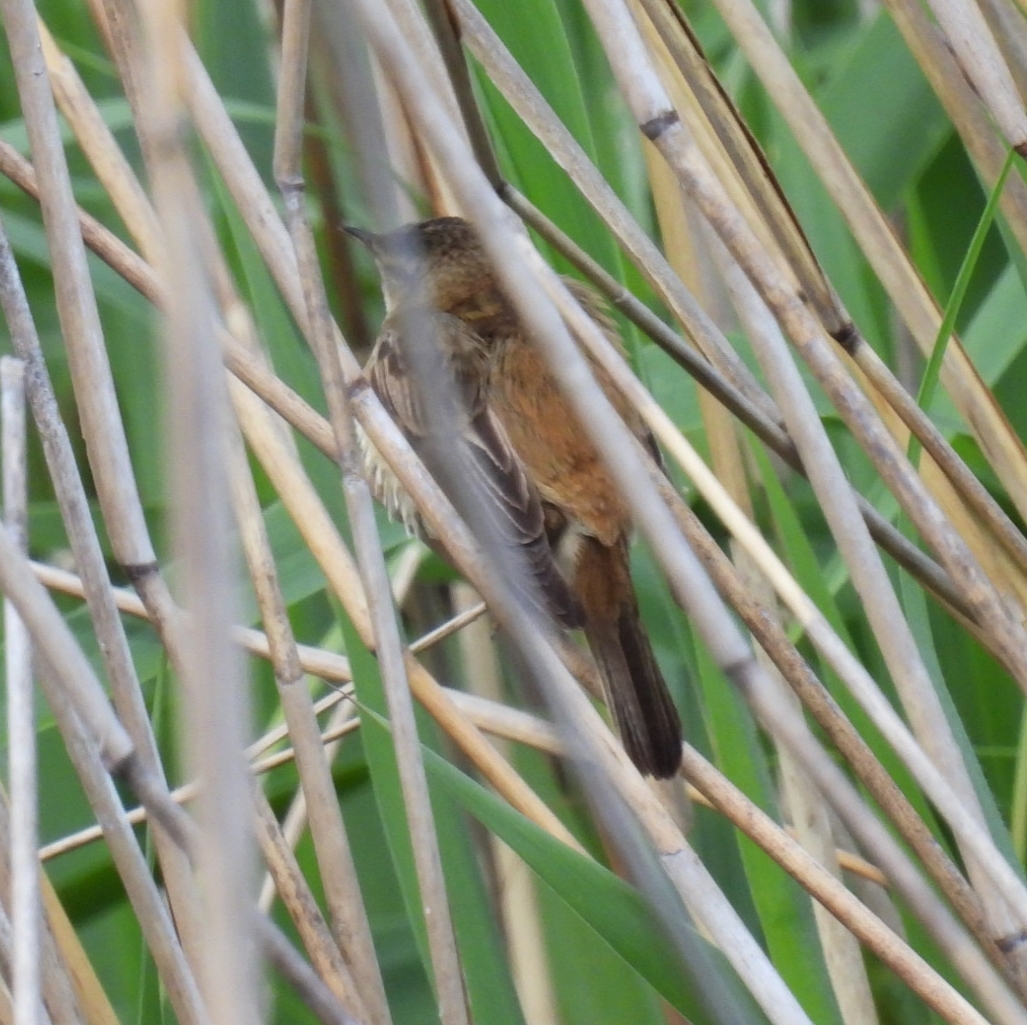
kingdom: Animalia
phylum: Chordata
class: Aves
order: Passeriformes
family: Acrocephalidae
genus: Acrocephalus
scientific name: Acrocephalus schoenobaenus
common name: Sedge warbler
